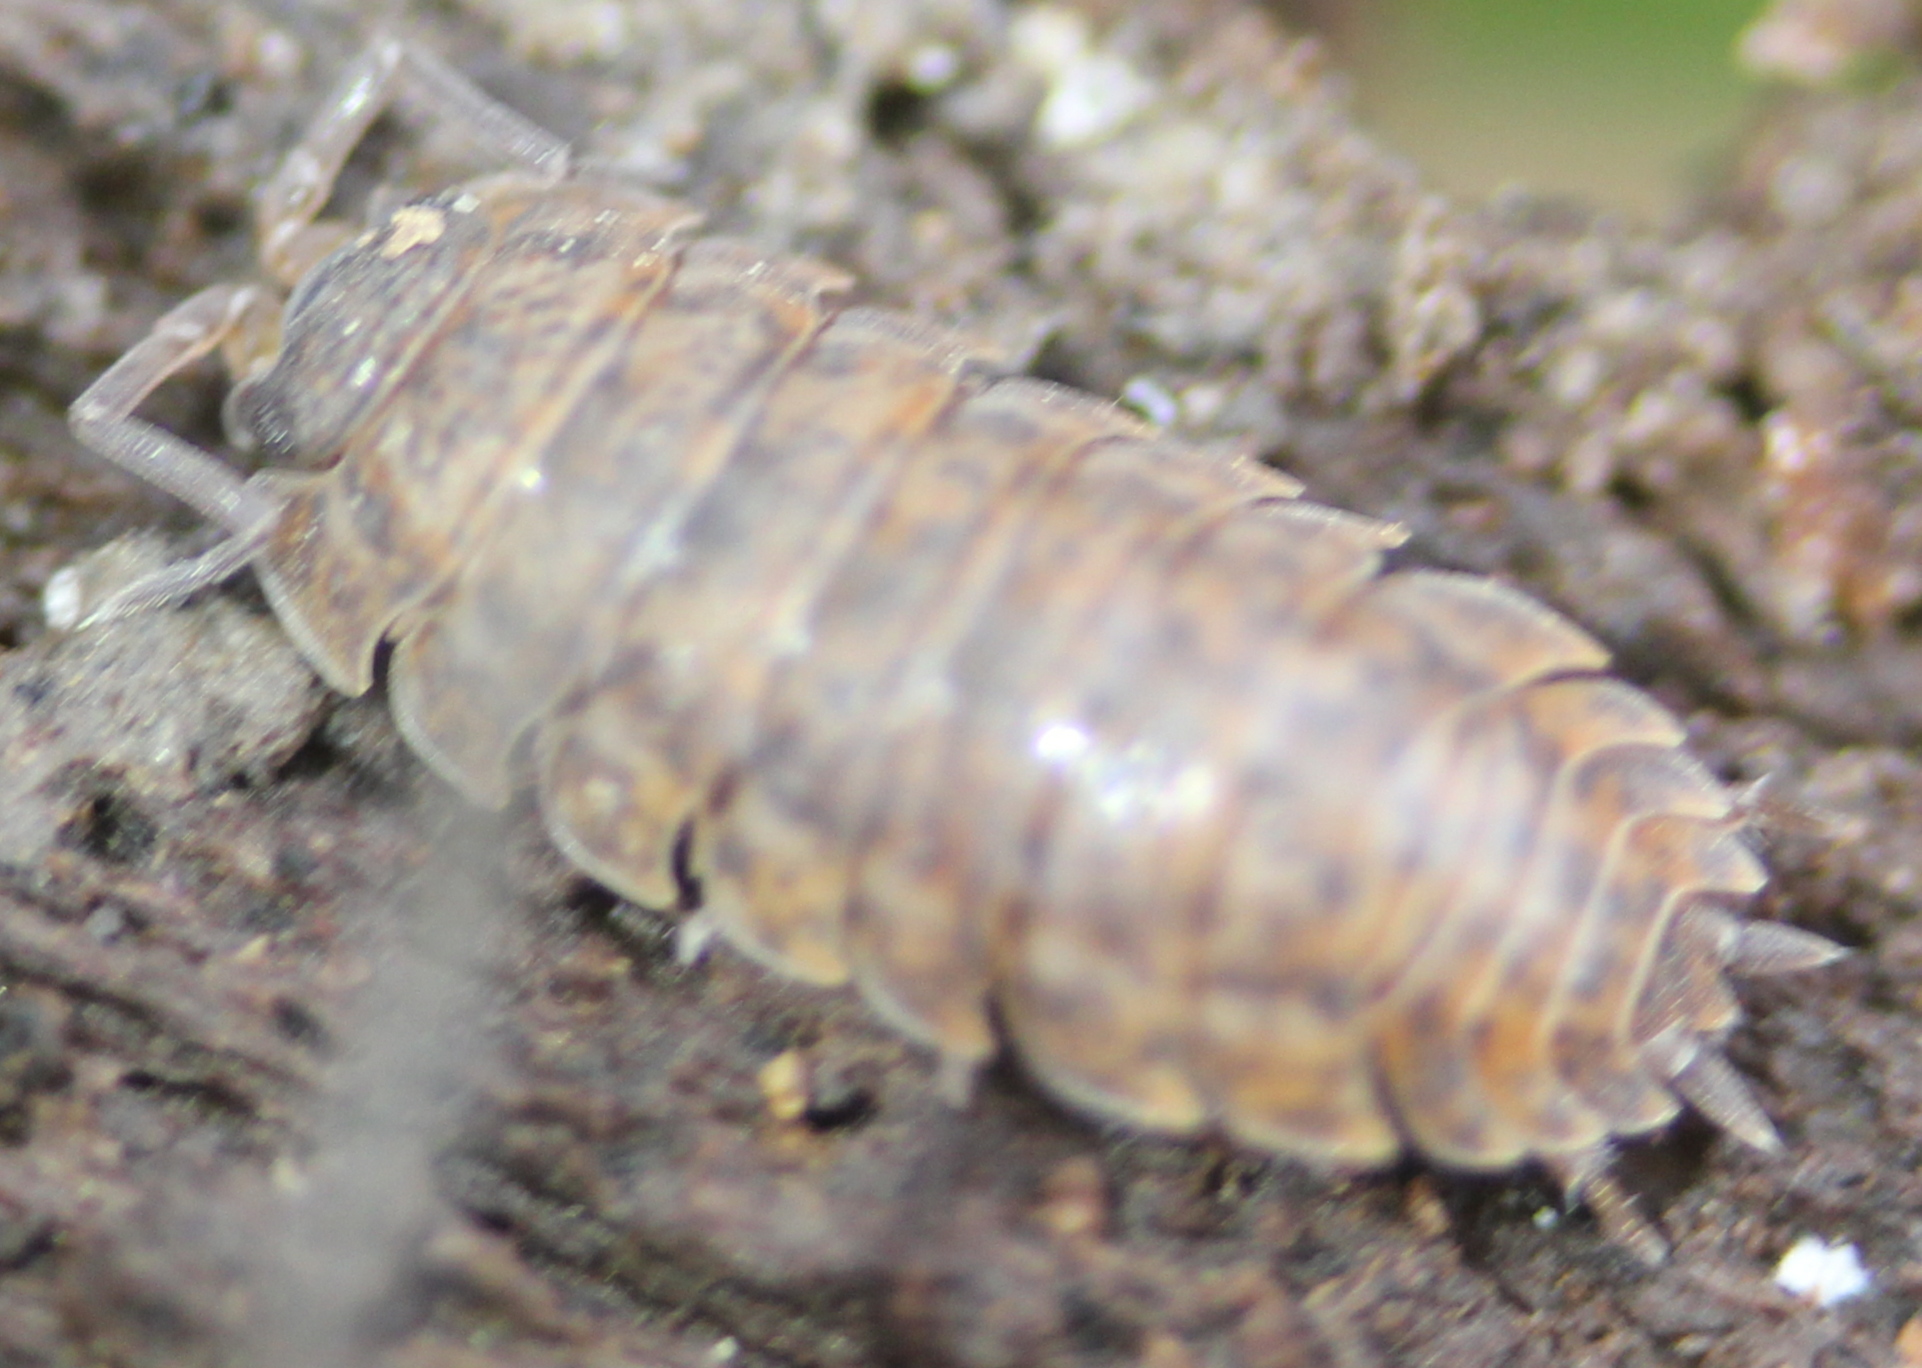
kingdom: Animalia
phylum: Arthropoda
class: Malacostraca
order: Isopoda
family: Trachelipodidae
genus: Trachelipus
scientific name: Trachelipus rathkii
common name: Isopod
